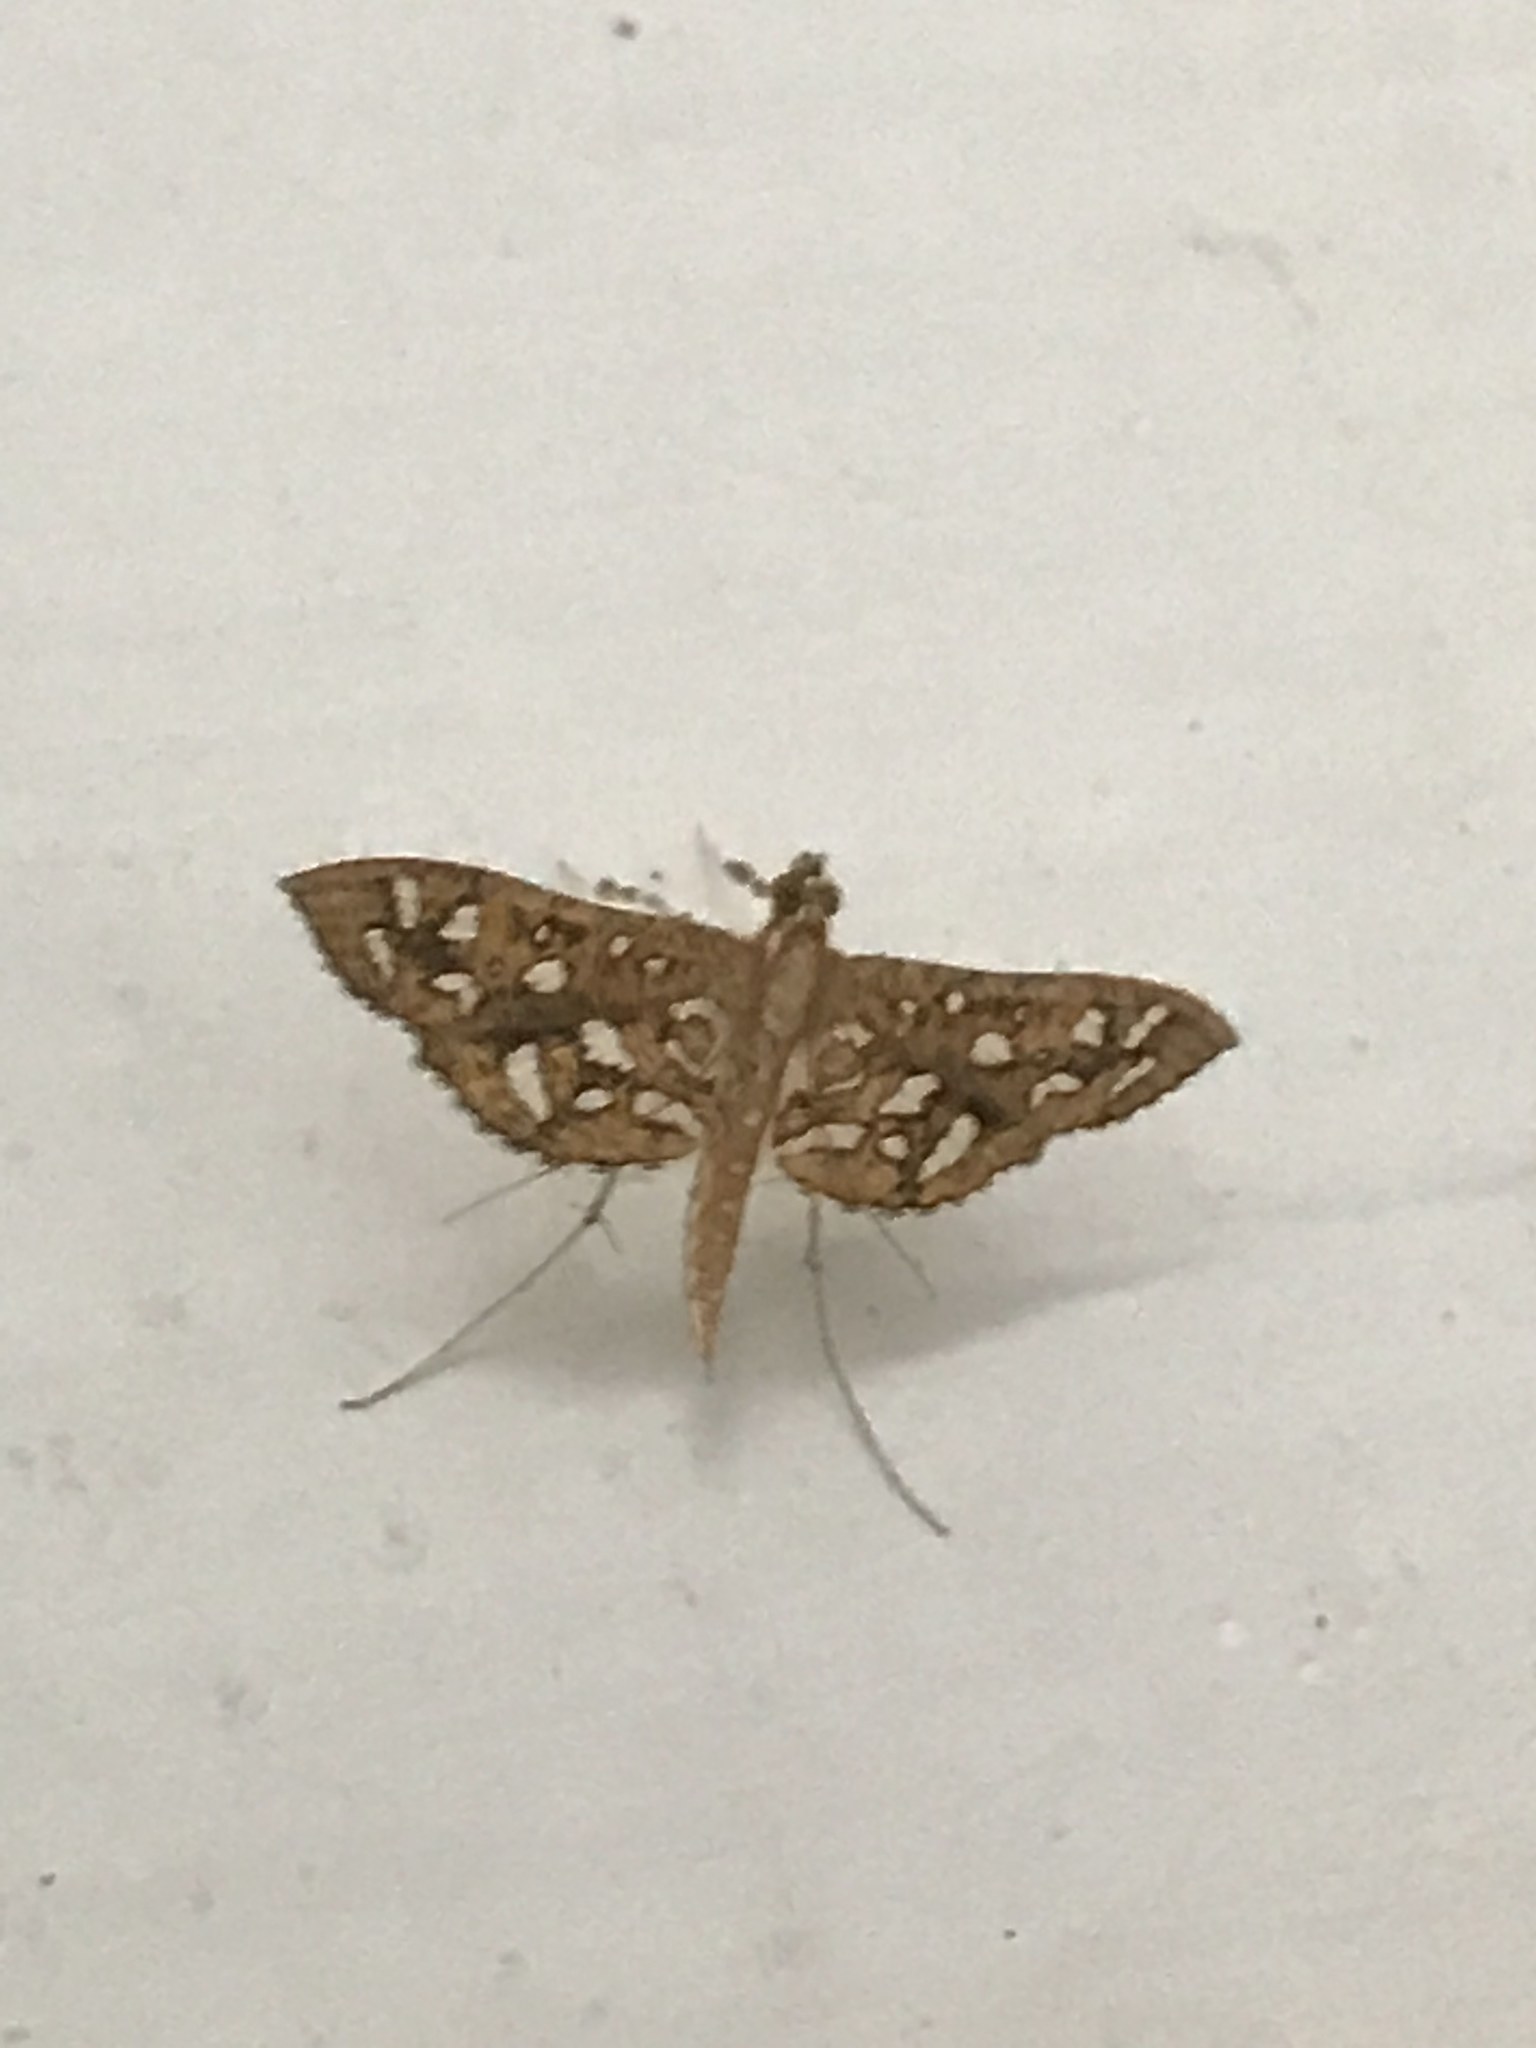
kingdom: Animalia
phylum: Arthropoda
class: Insecta
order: Lepidoptera
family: Crambidae
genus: Nausinoe
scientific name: Nausinoe geometralis
